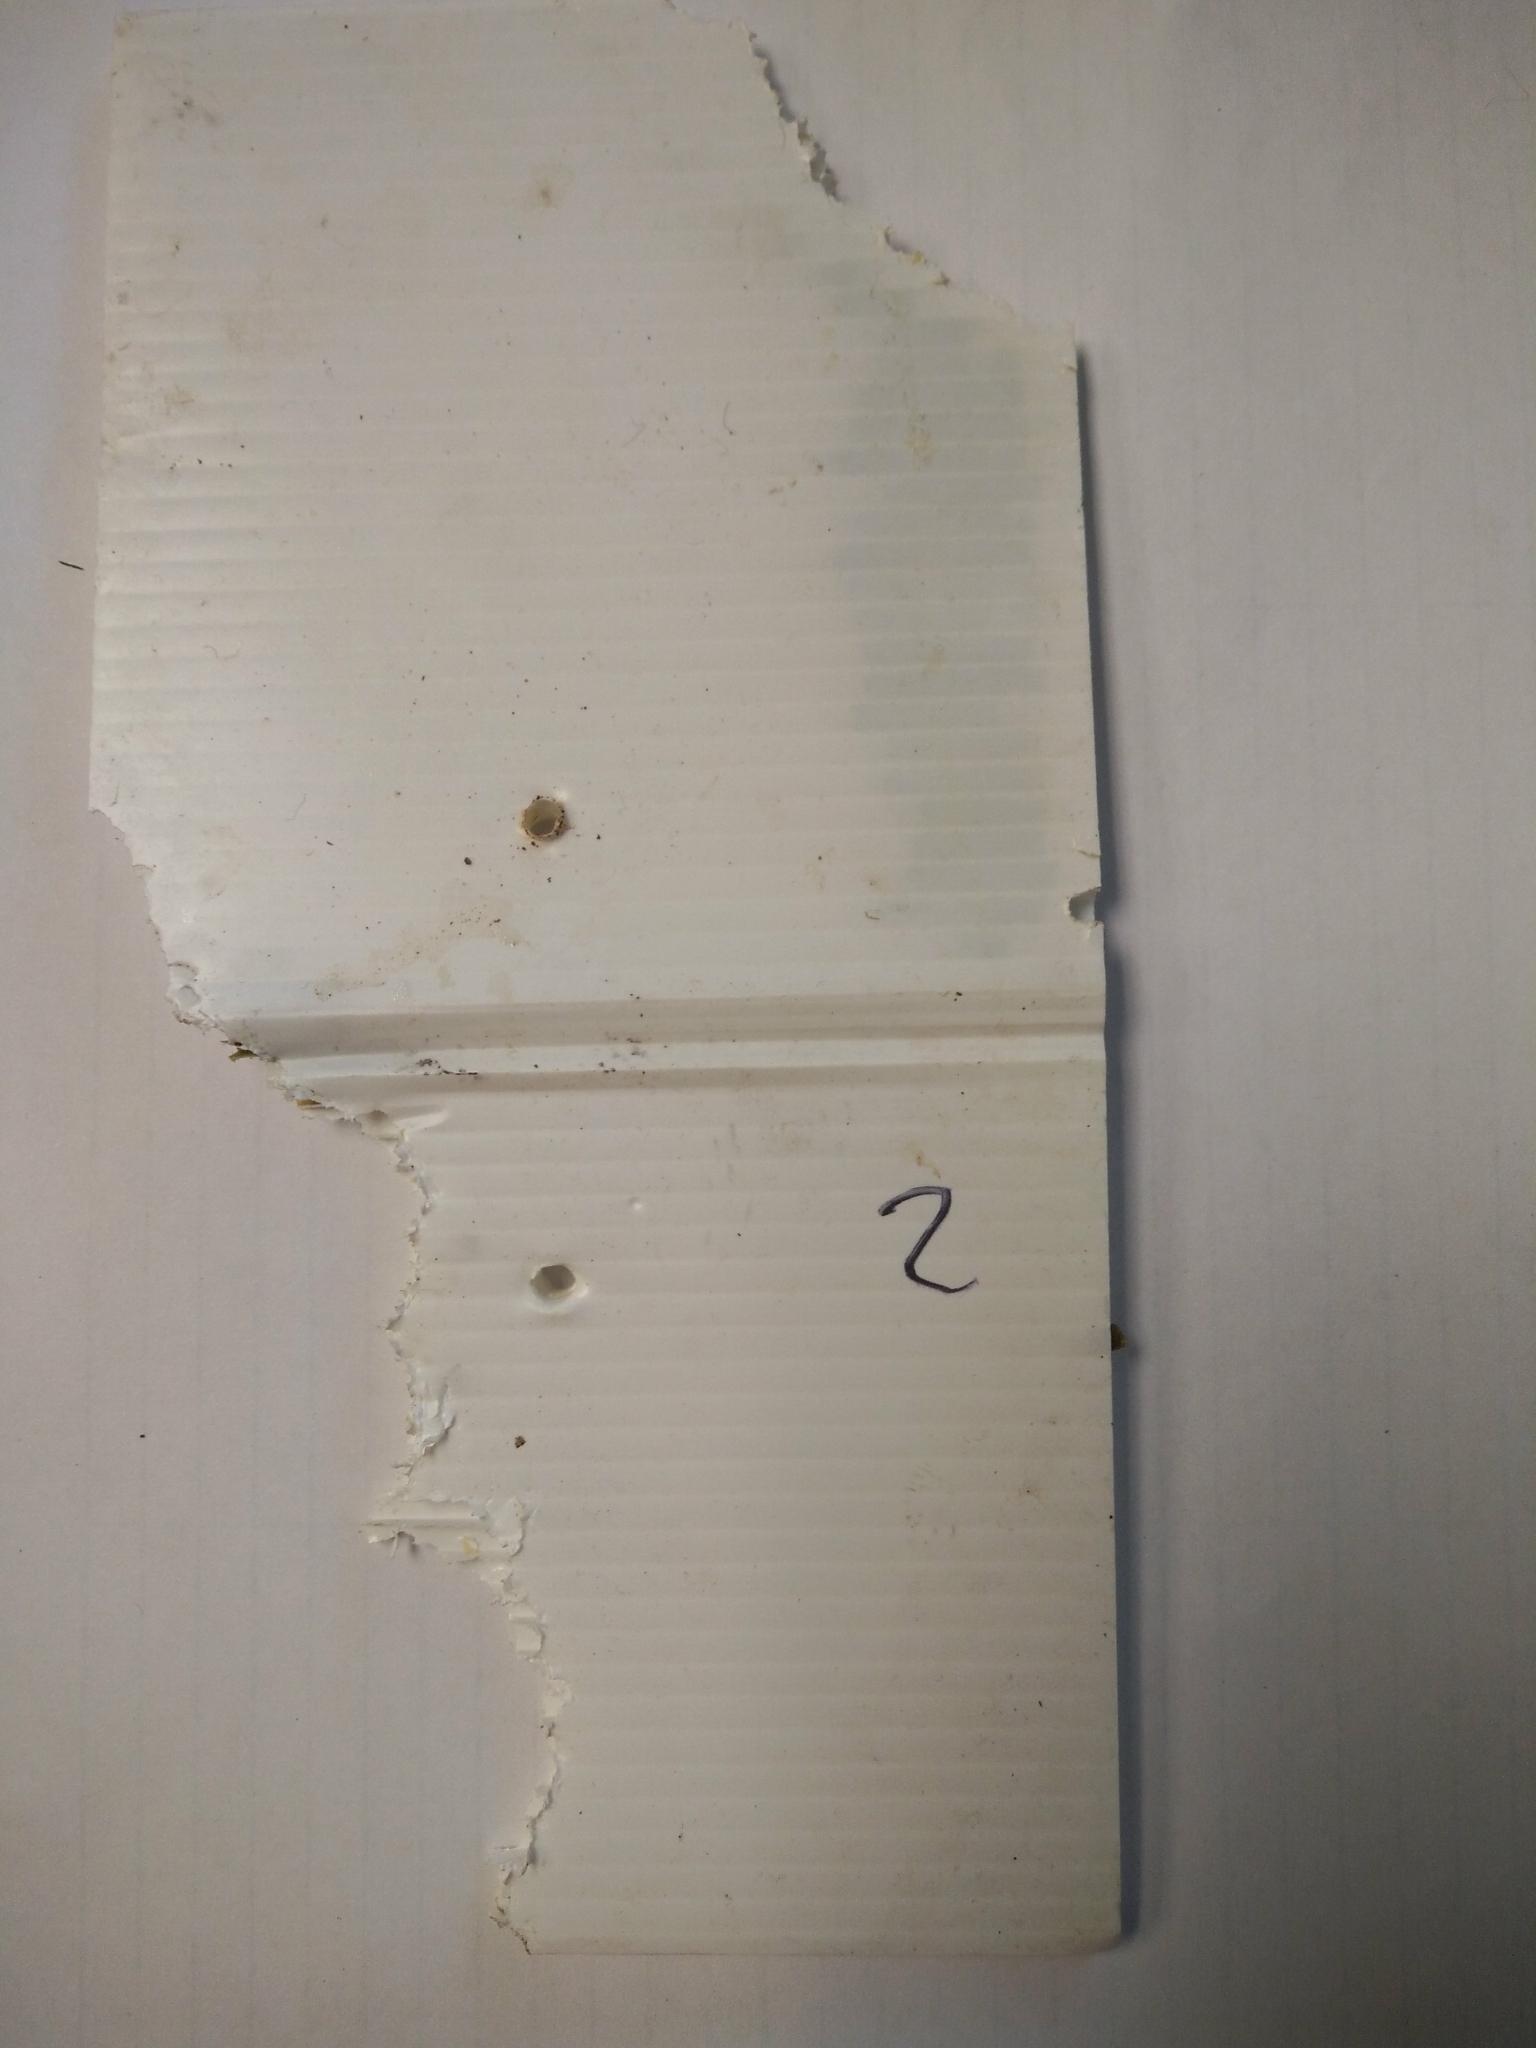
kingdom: Animalia
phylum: Chordata
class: Mammalia
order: Rodentia
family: Muridae
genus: Mus
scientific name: Mus musculus
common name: House mouse
